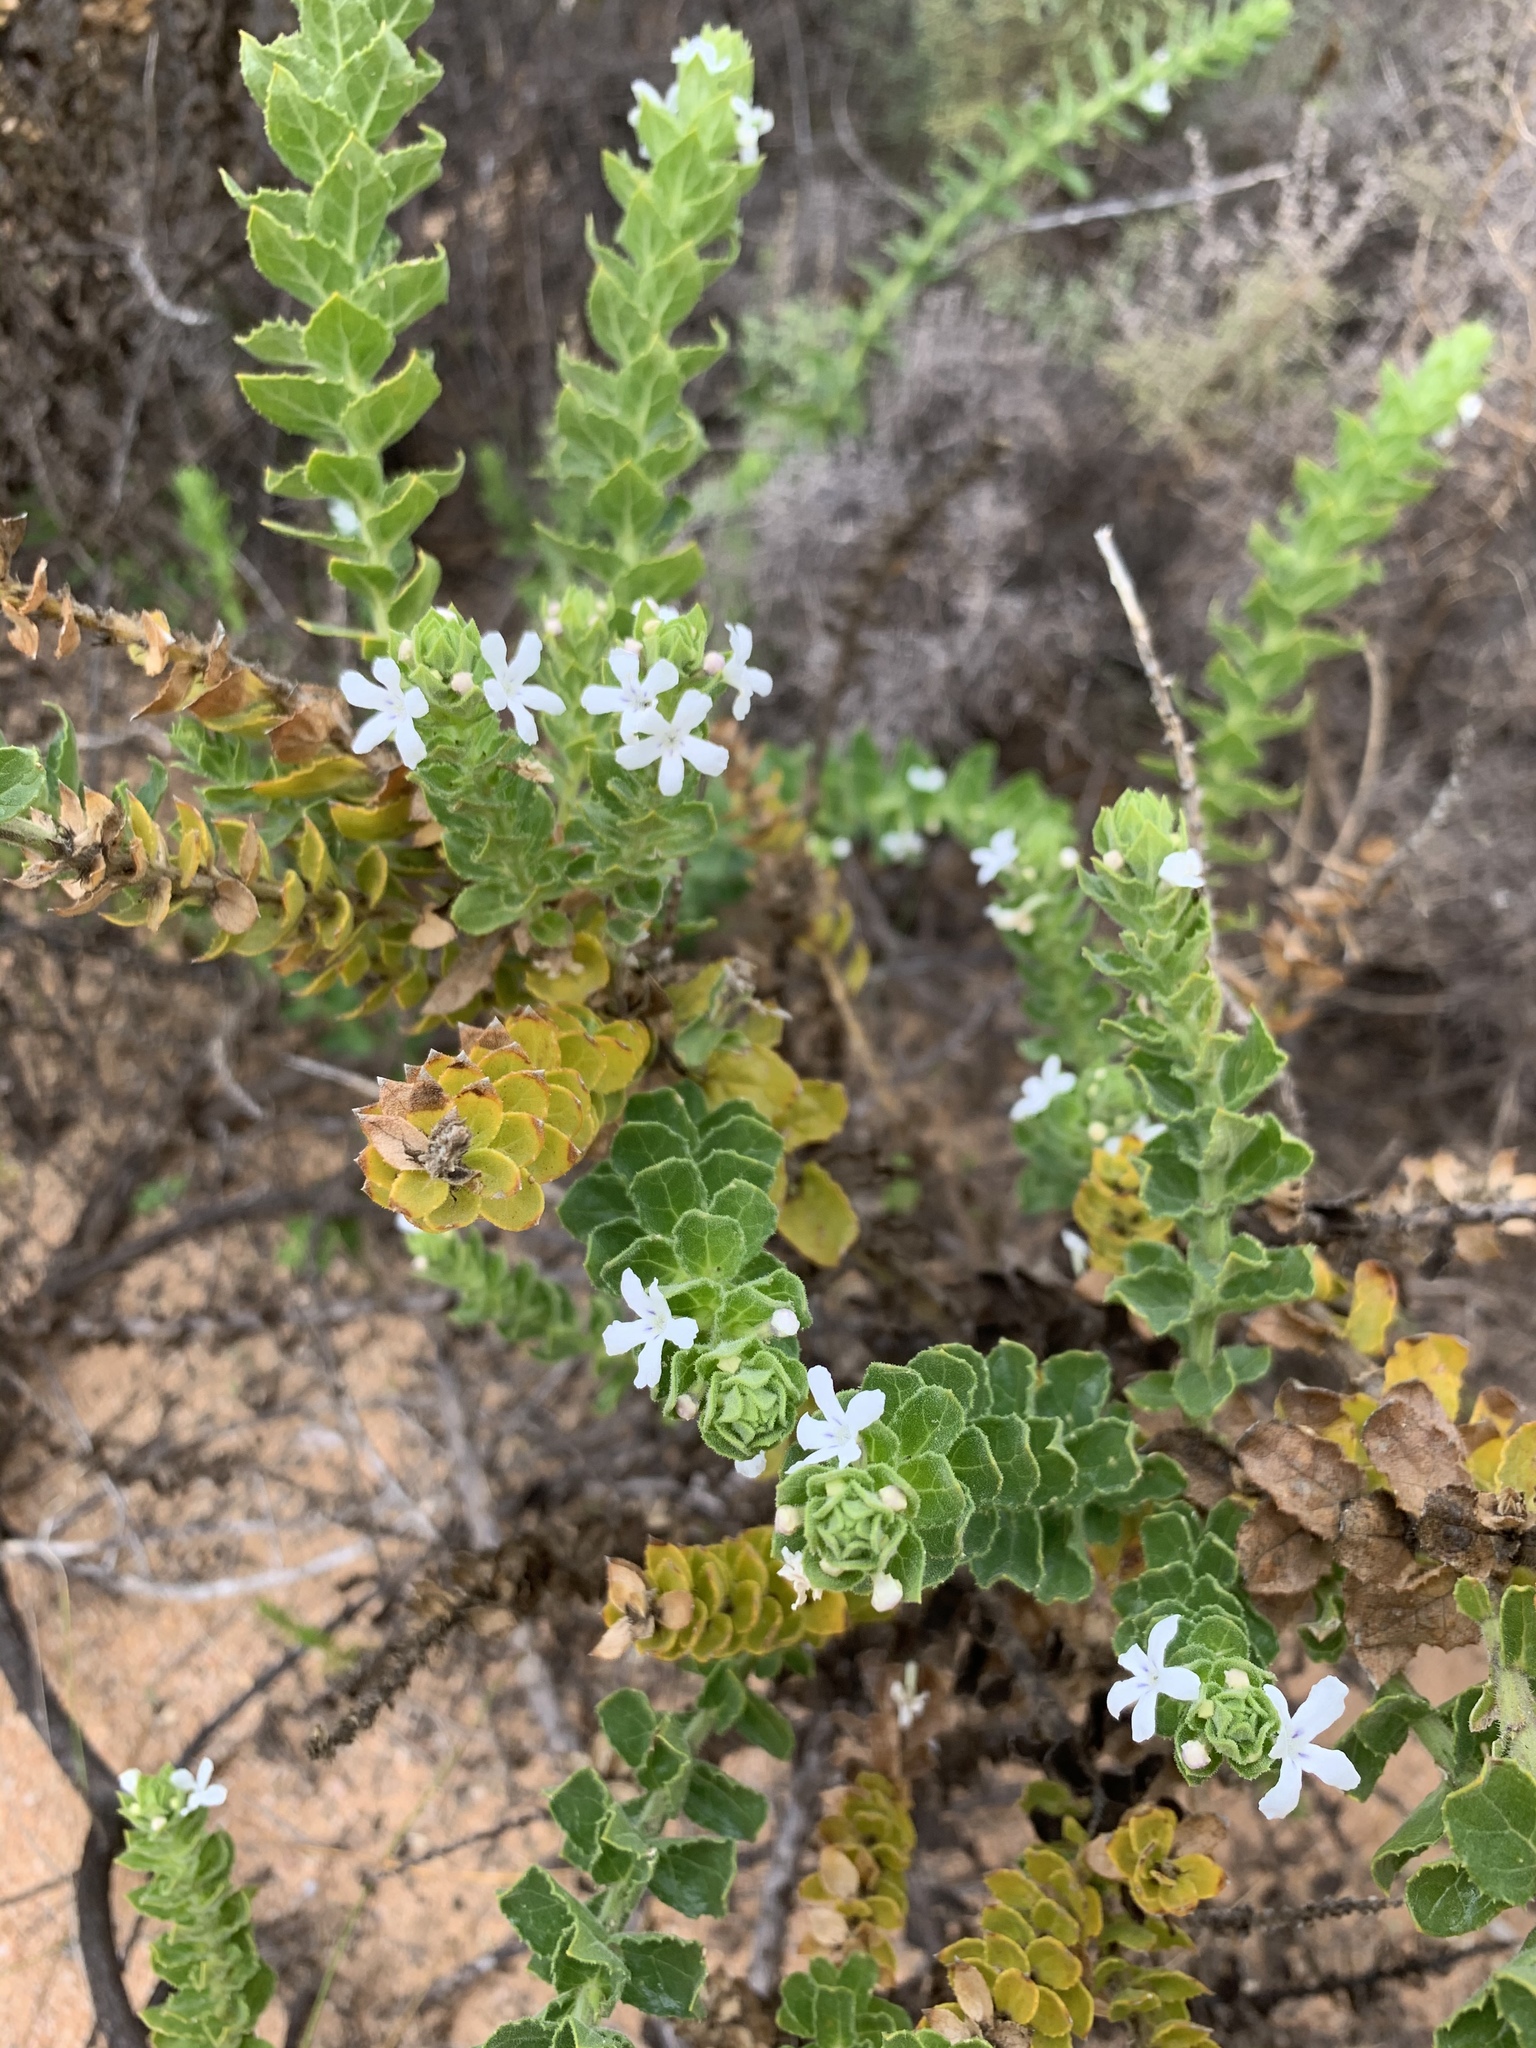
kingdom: Plantae
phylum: Tracheophyta
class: Magnoliopsida
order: Lamiales
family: Scrophulariaceae
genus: Oftia
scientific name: Oftia africana
